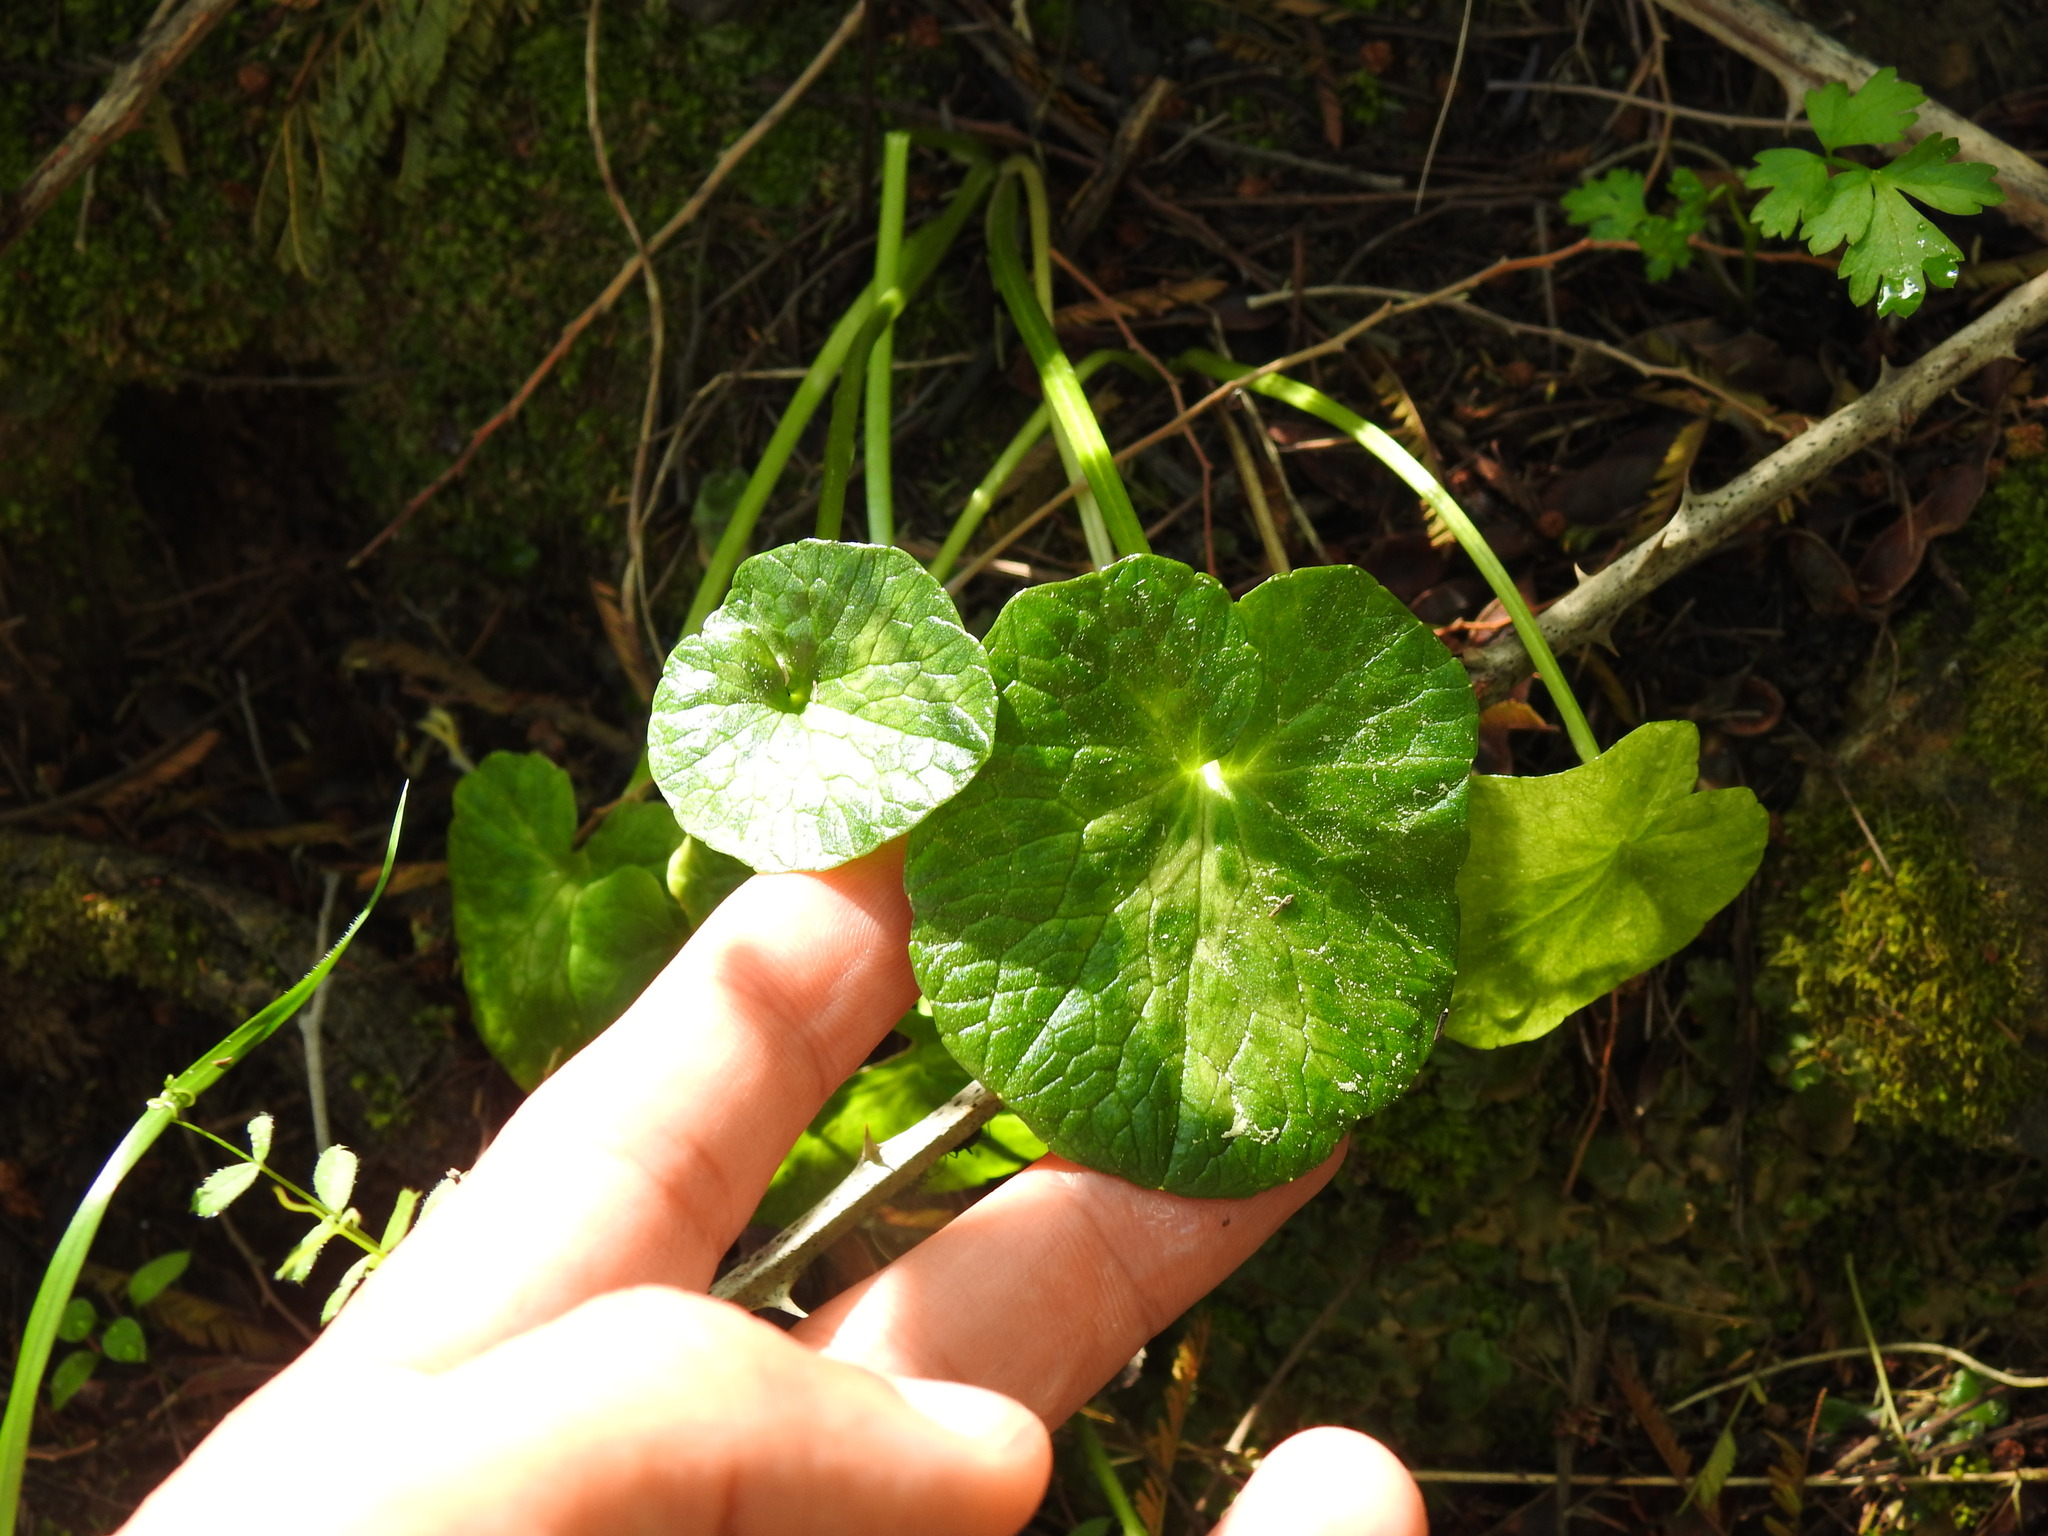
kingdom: Plantae
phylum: Tracheophyta
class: Magnoliopsida
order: Ranunculales
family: Ranunculaceae
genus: Ficaria
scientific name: Ficaria verna
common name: Lesser celandine
